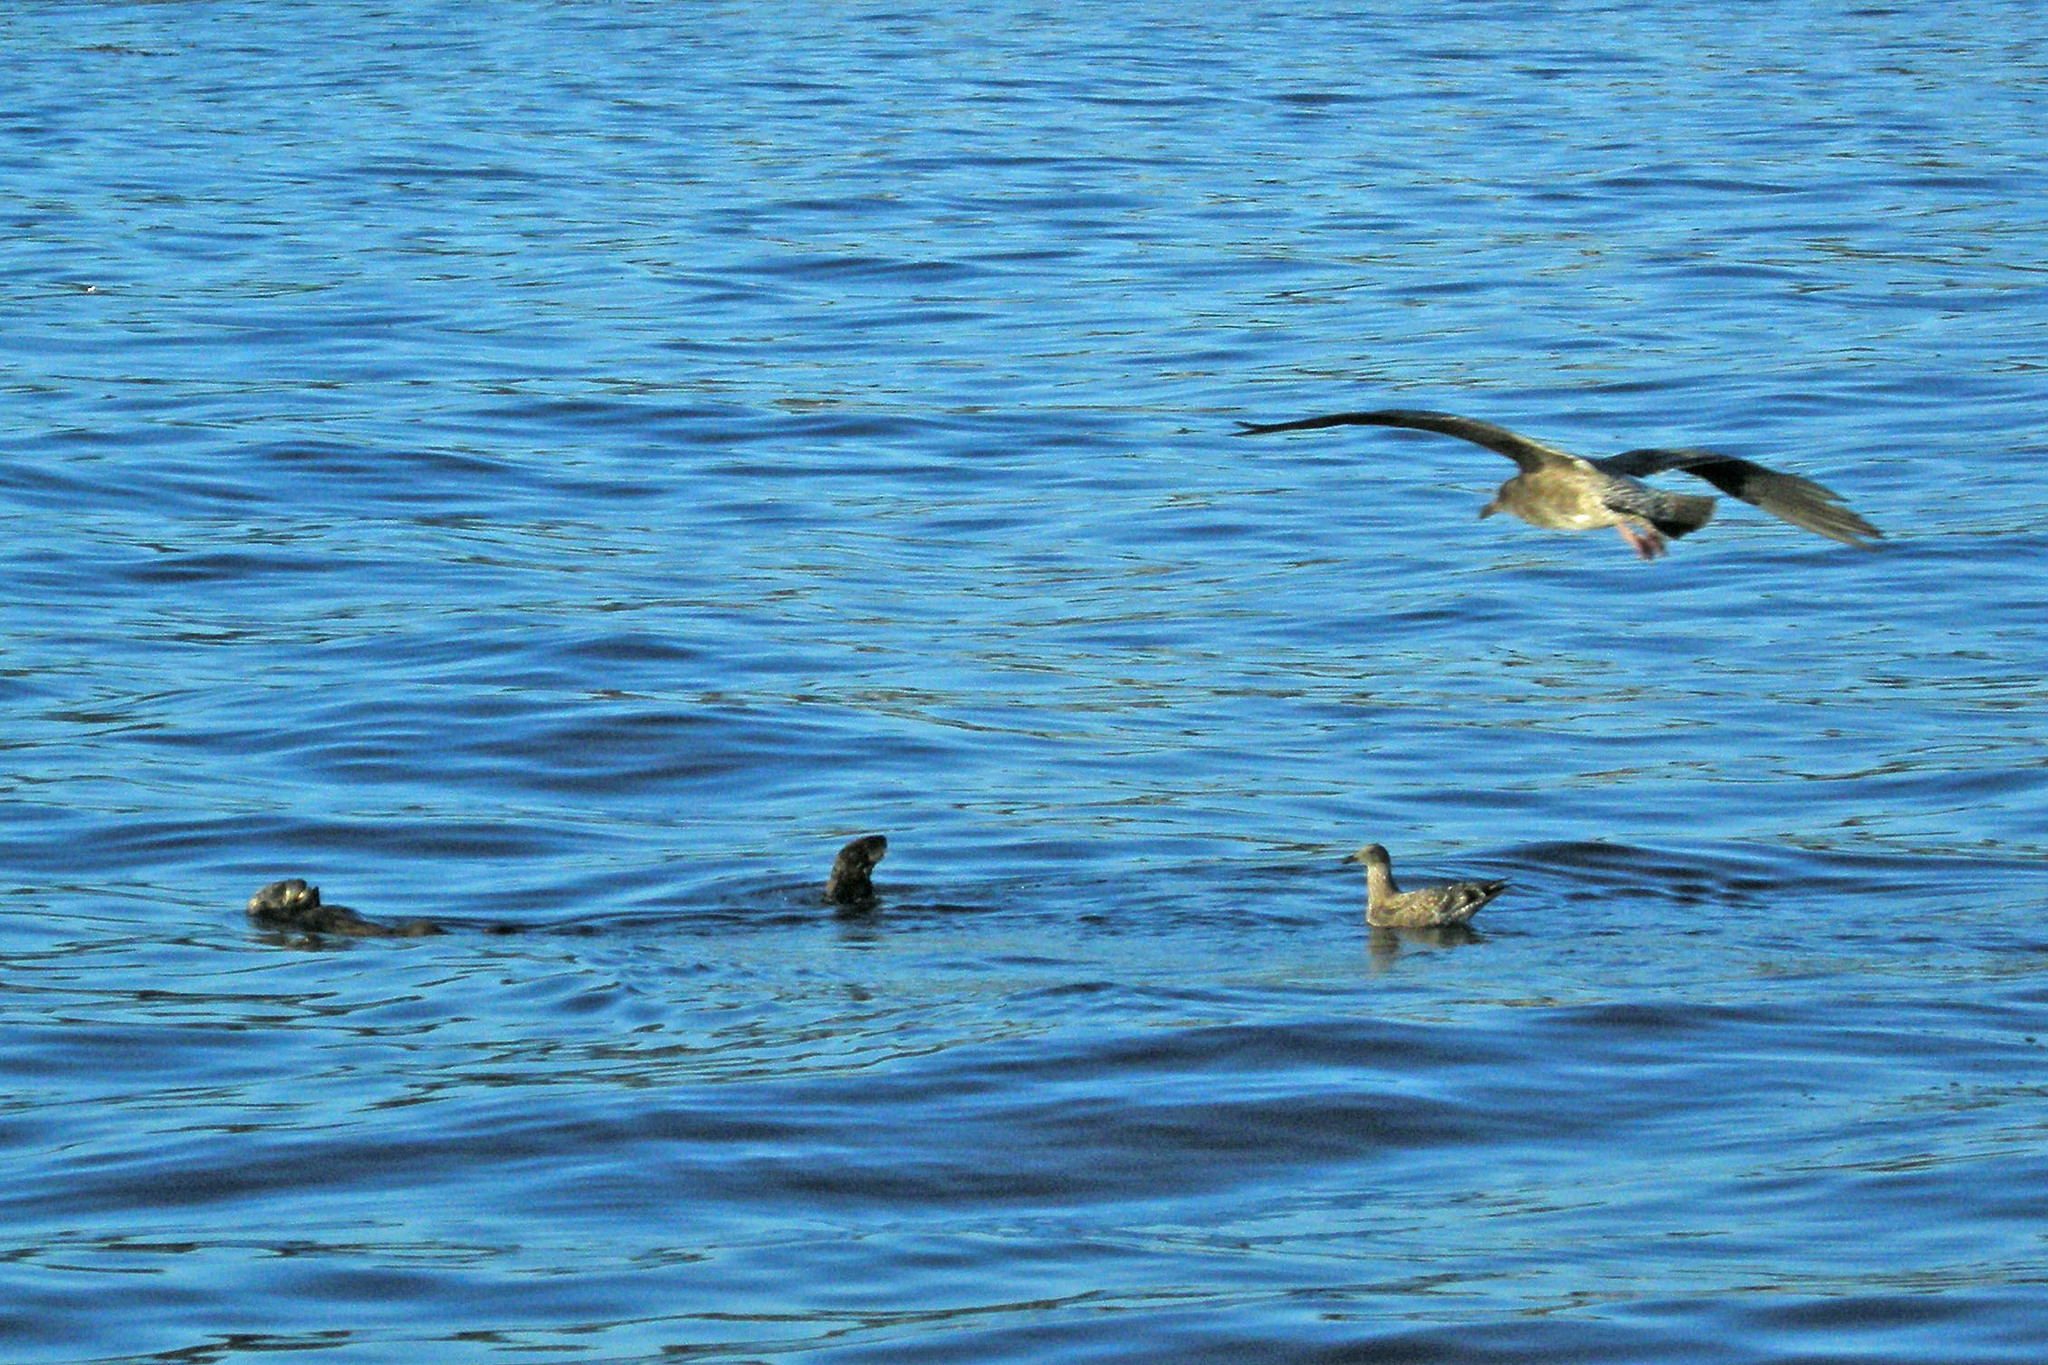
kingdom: Animalia
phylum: Chordata
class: Mammalia
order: Carnivora
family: Mustelidae
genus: Enhydra
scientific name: Enhydra lutris
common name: Sea otter
